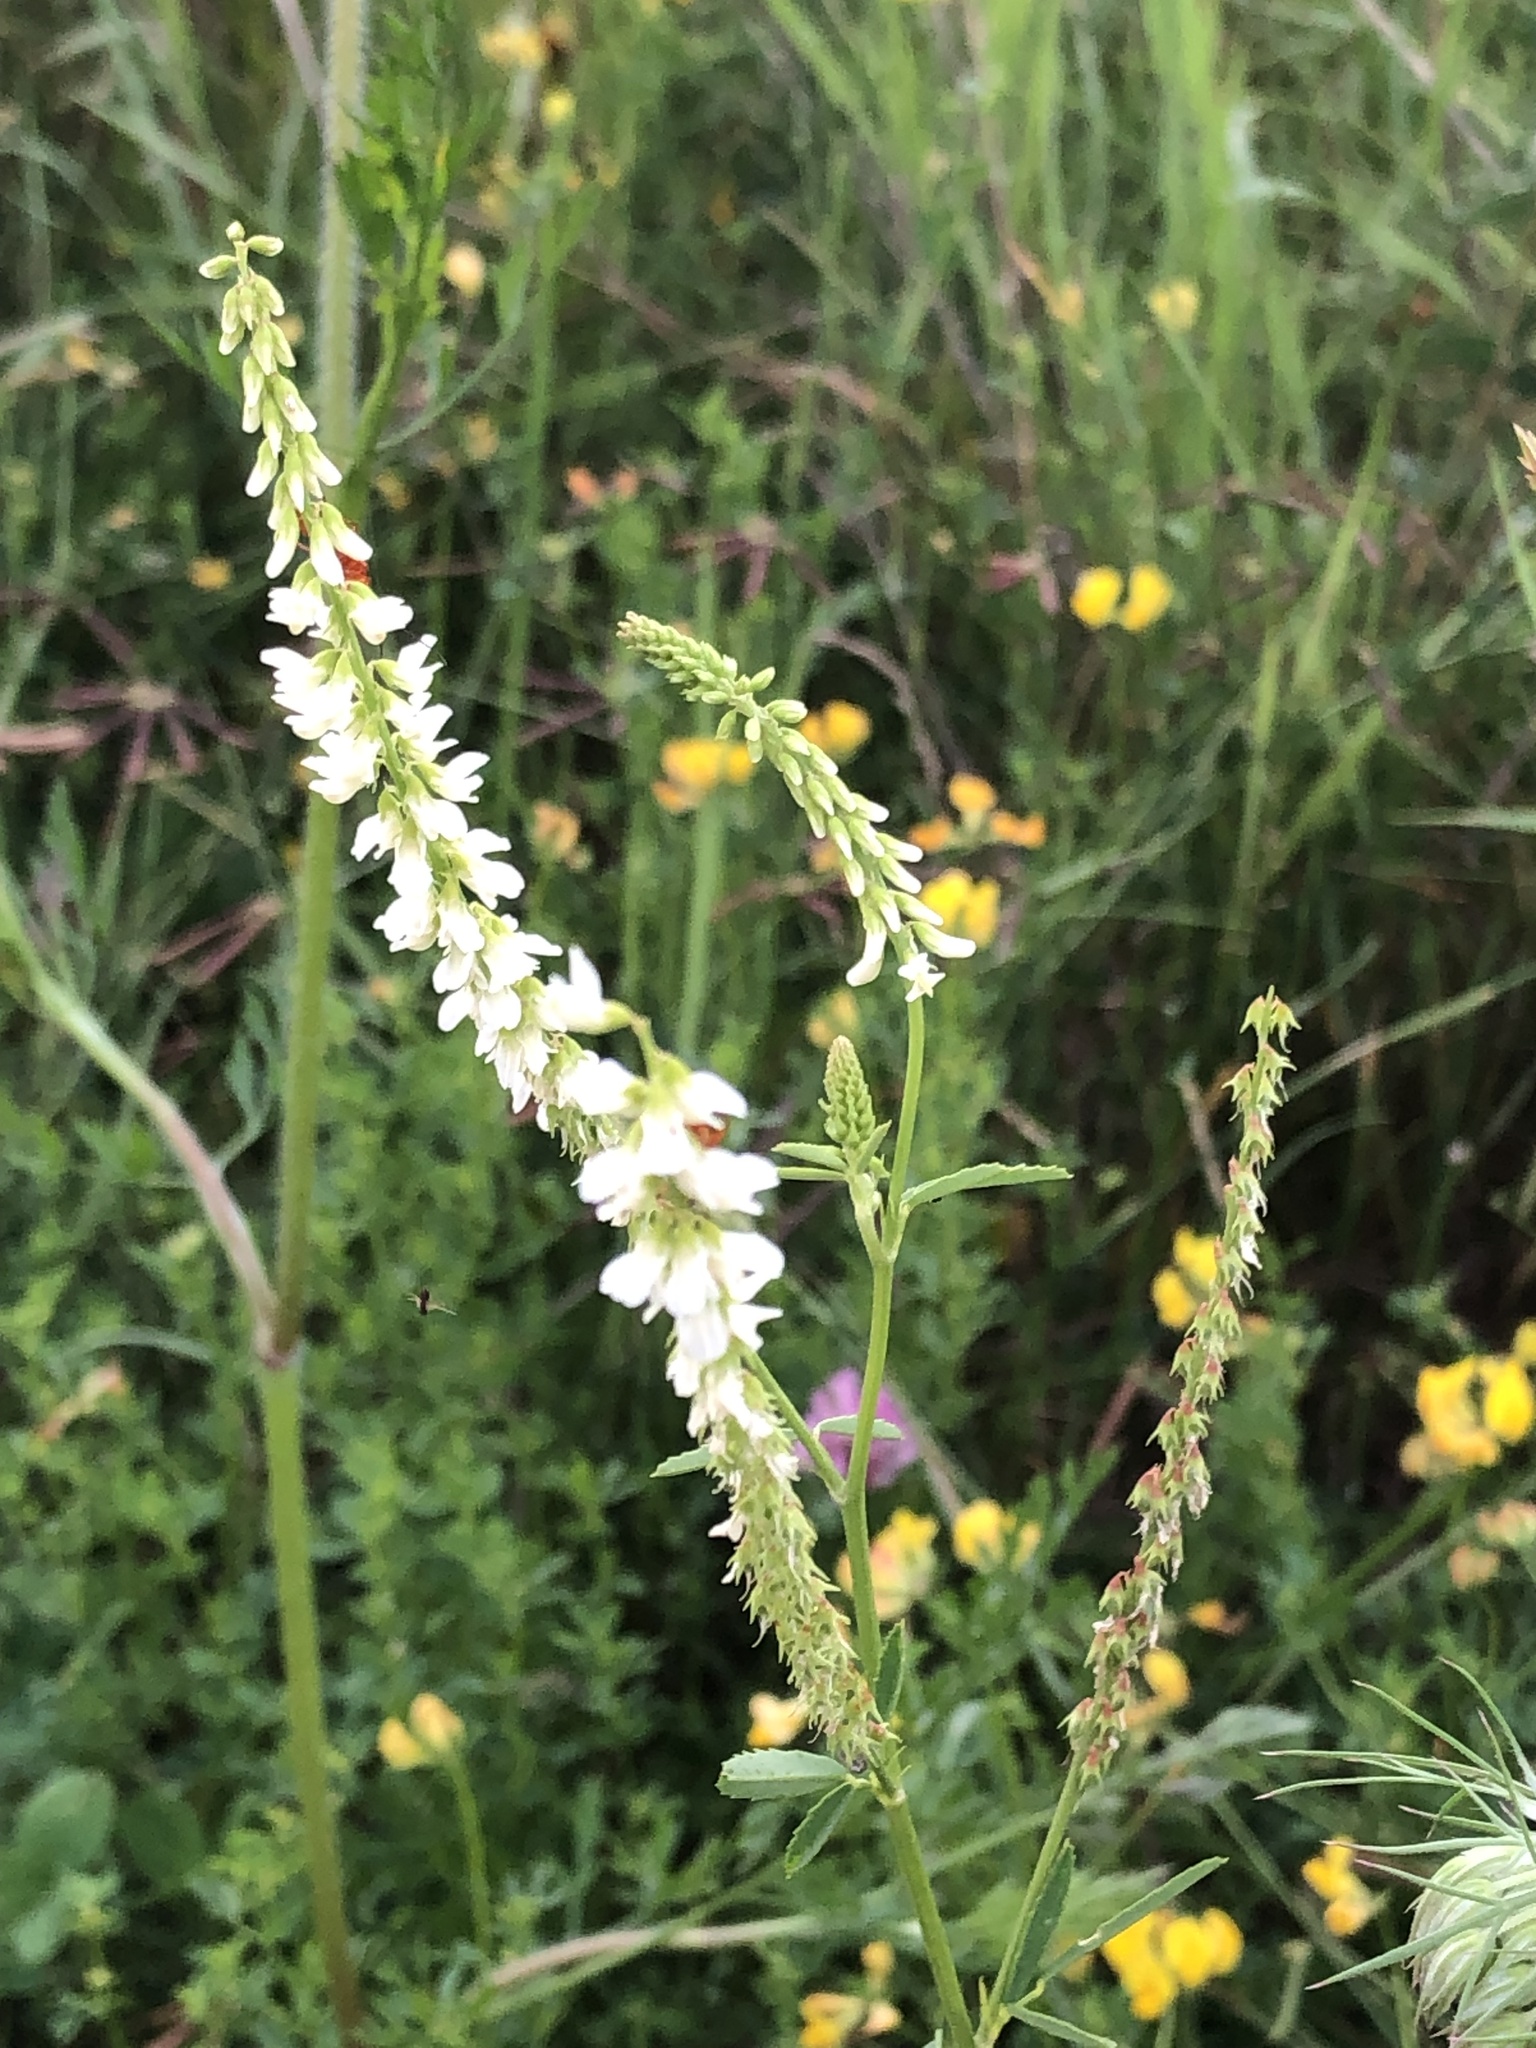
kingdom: Plantae
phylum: Tracheophyta
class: Magnoliopsida
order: Fabales
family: Fabaceae
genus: Melilotus
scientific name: Melilotus albus
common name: White melilot
